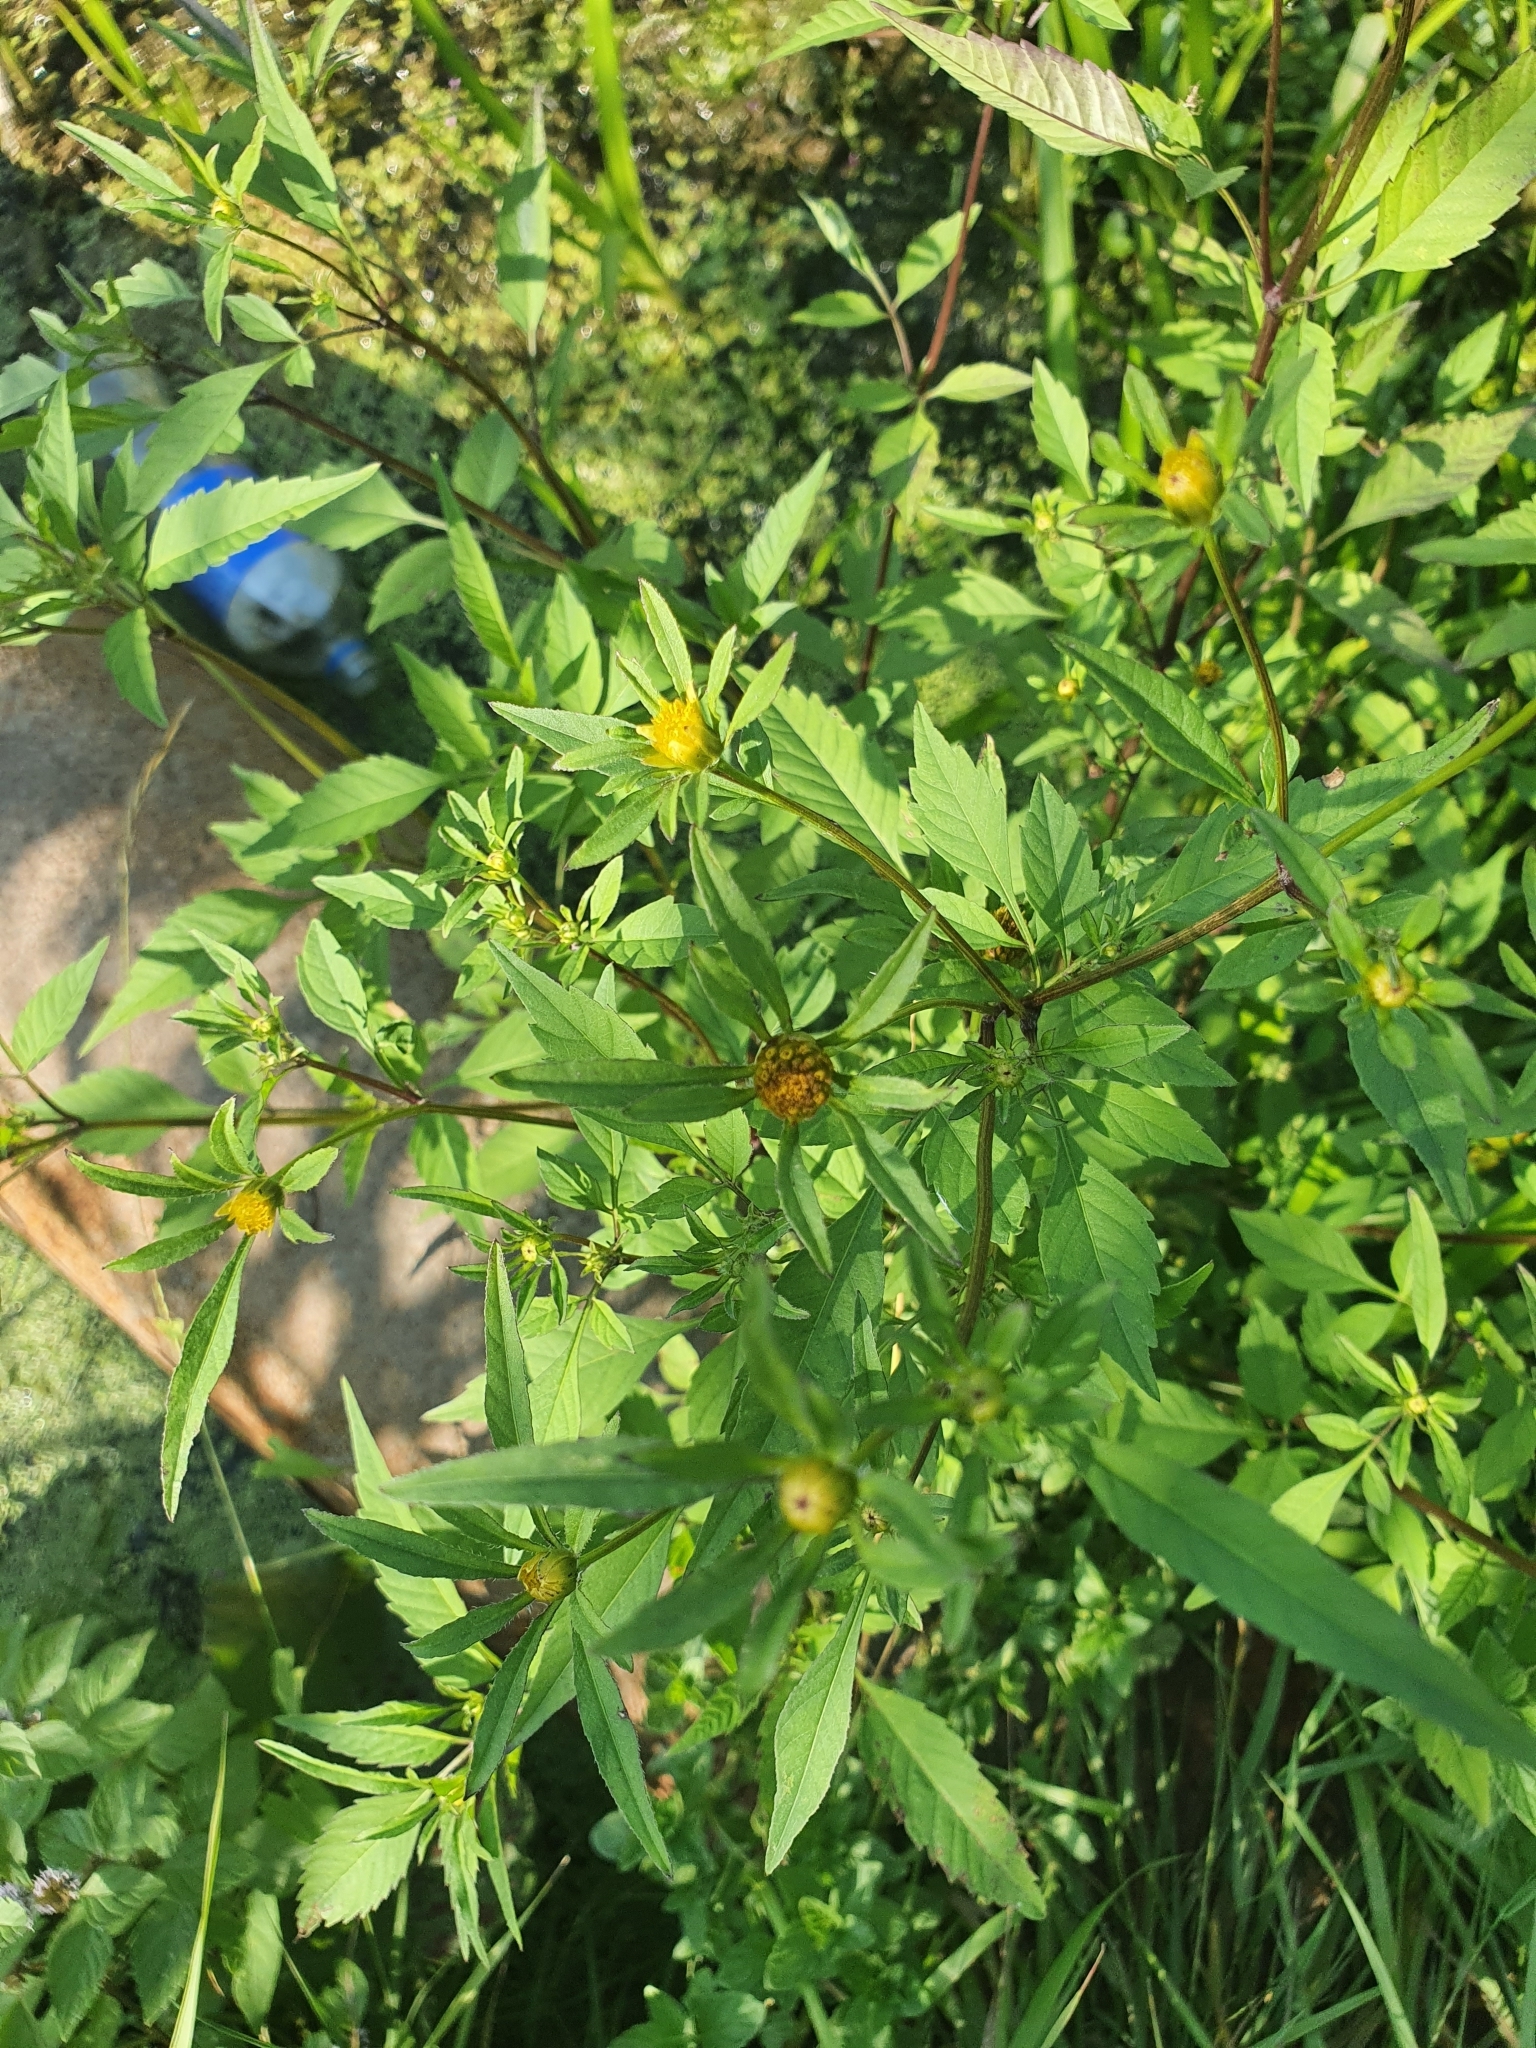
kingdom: Plantae
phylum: Tracheophyta
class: Magnoliopsida
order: Asterales
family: Asteraceae
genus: Bidens
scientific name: Bidens frondosa
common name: Beggarticks
